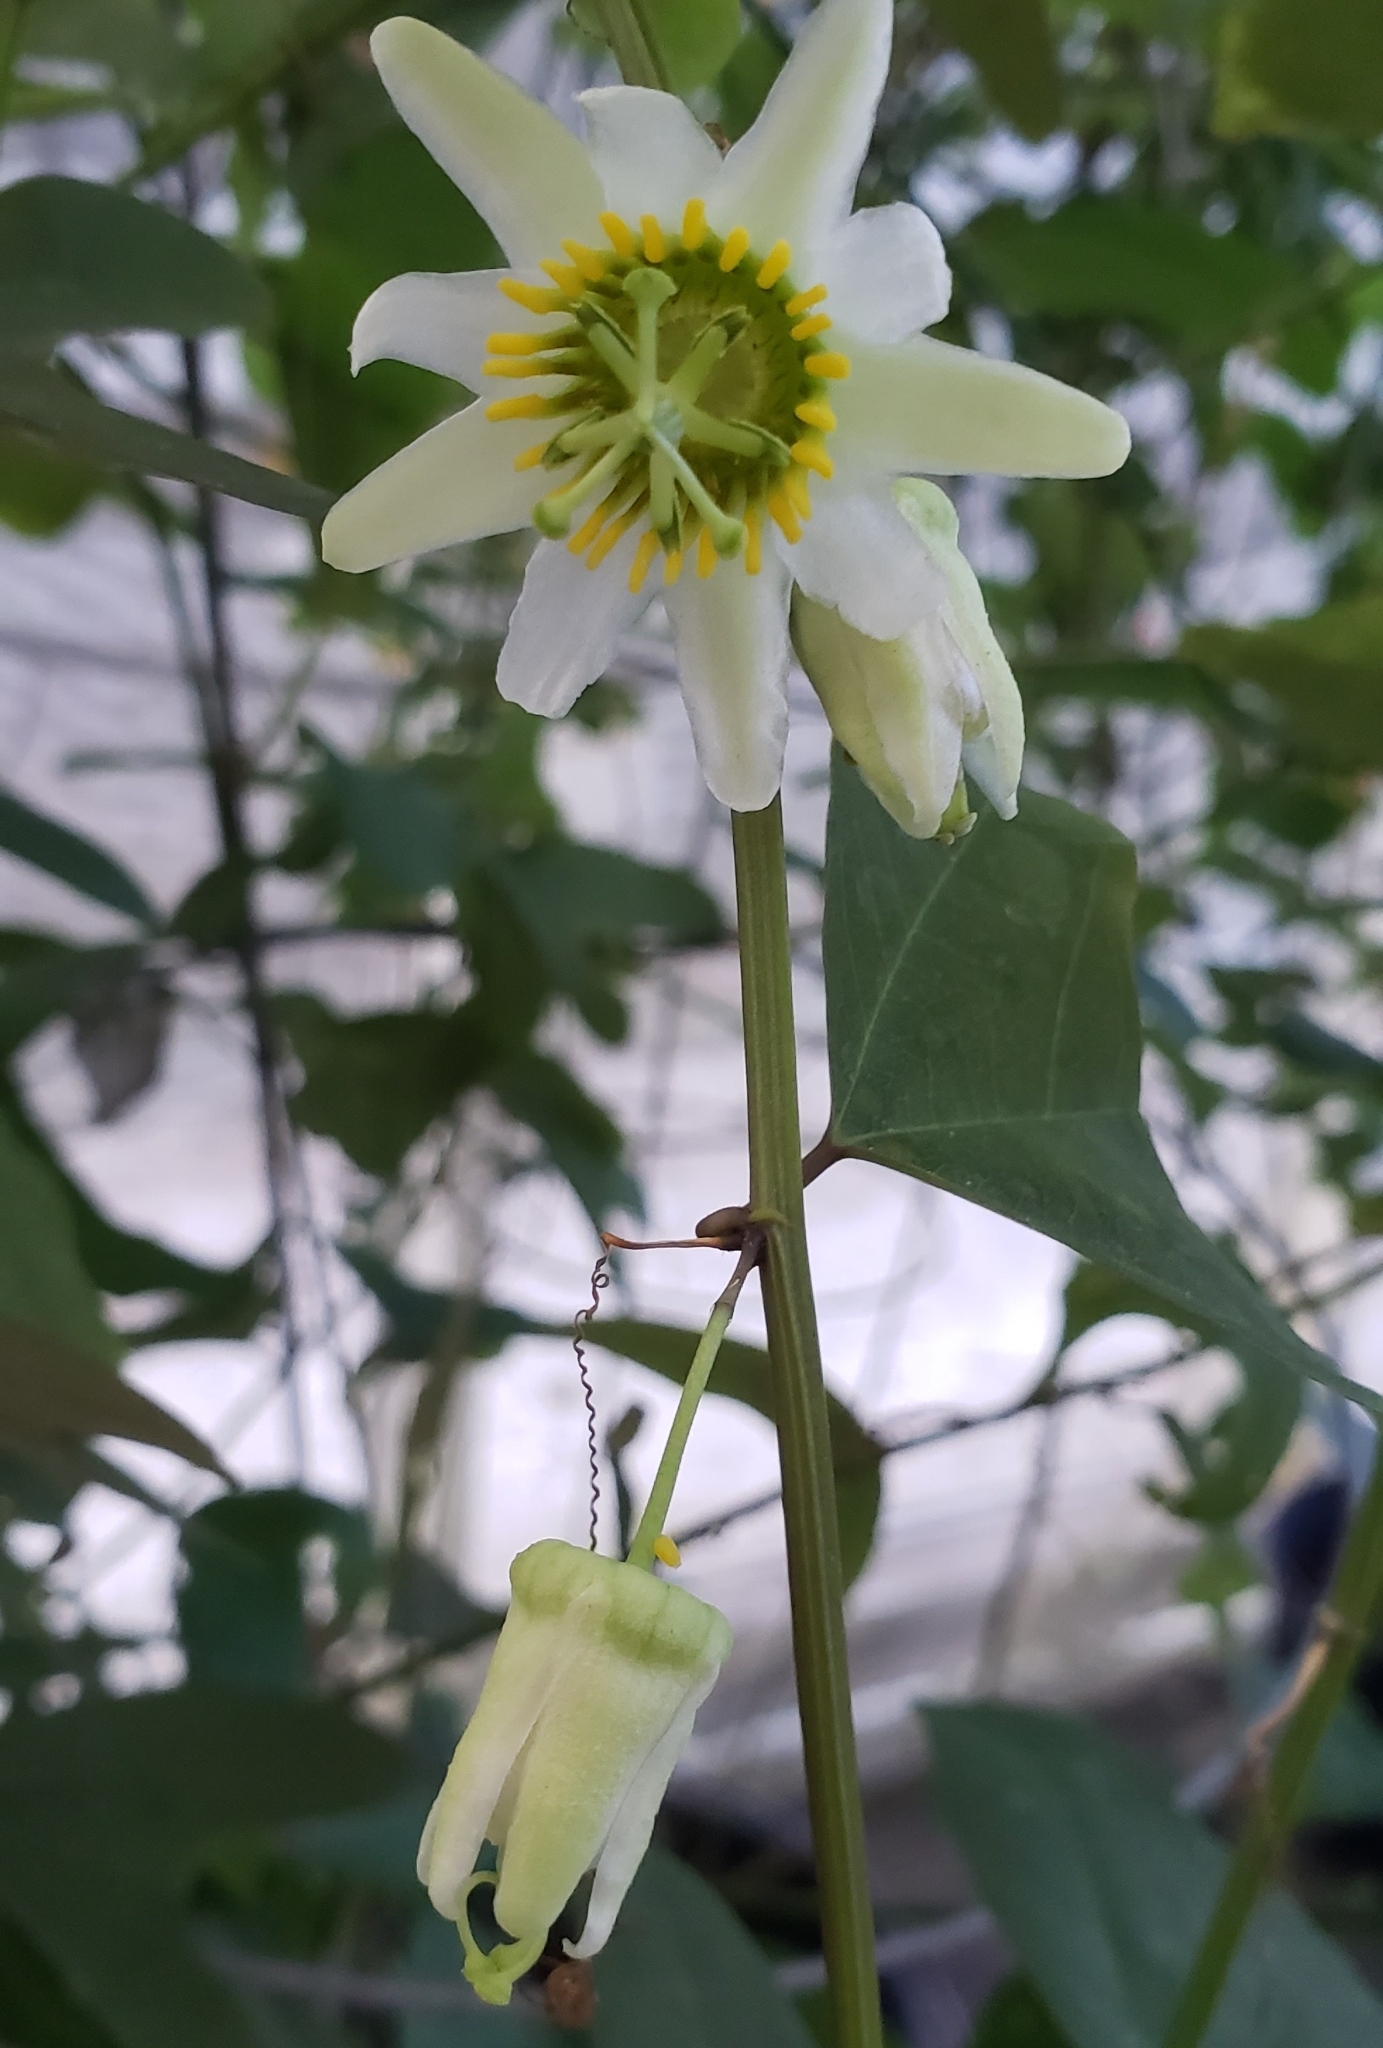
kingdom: Plantae
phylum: Tracheophyta
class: Magnoliopsida
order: Malpighiales
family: Passifloraceae
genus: Passiflora
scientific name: Passiflora biflora
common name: Twoflower passionflower
